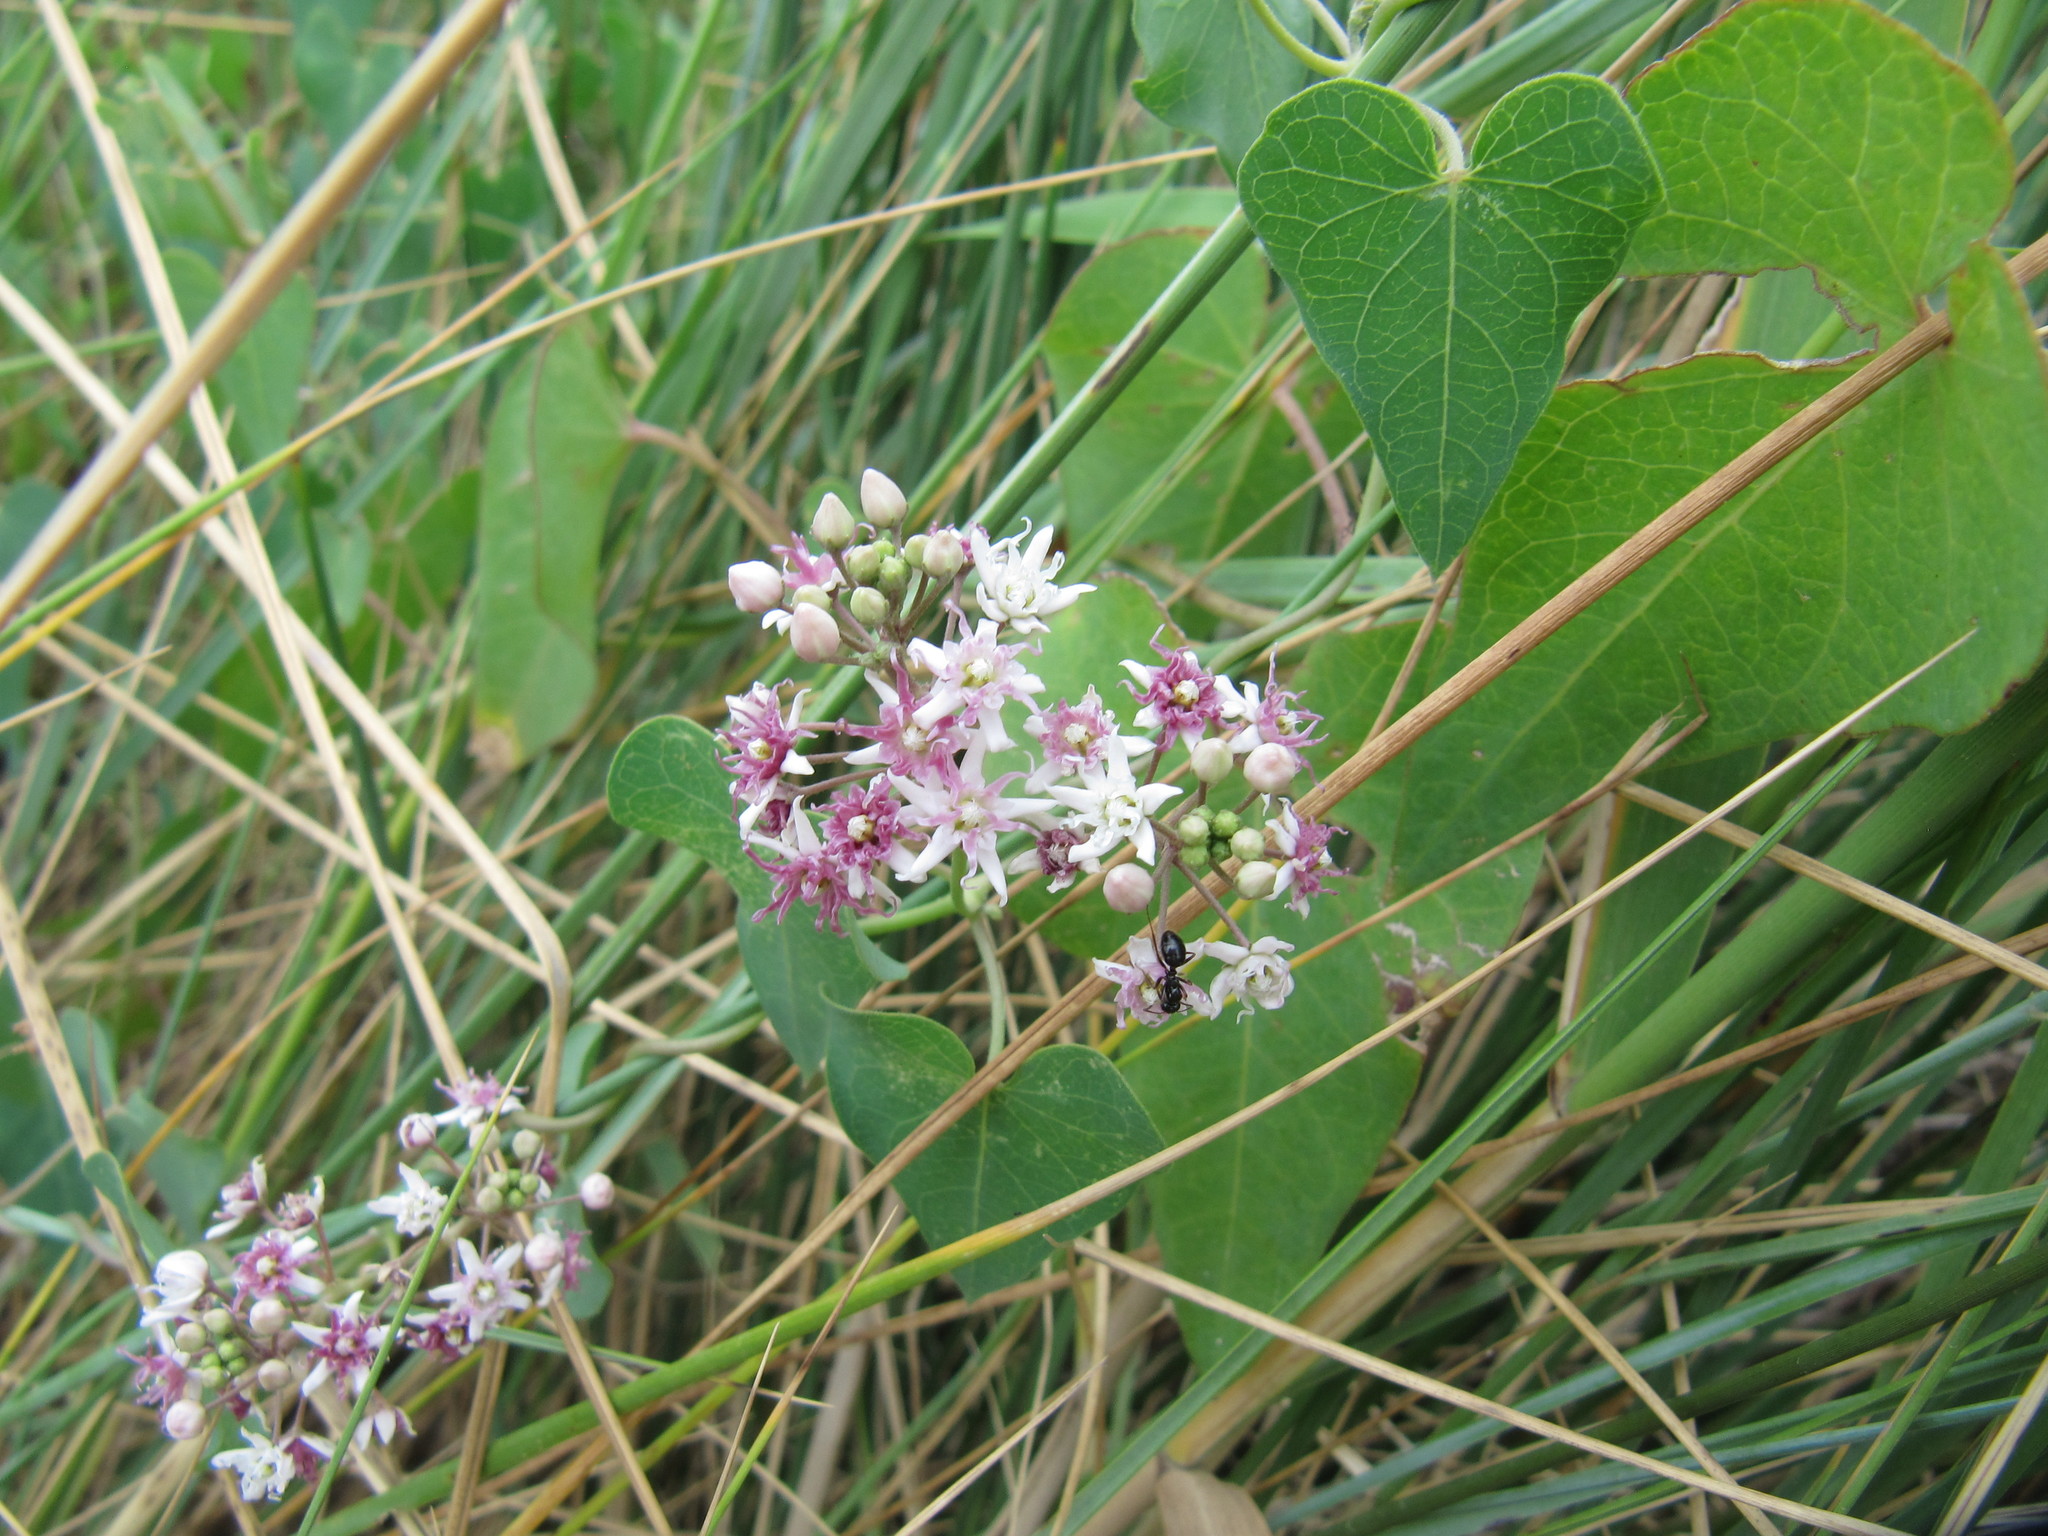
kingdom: Plantae
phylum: Tracheophyta
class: Magnoliopsida
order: Gentianales
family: Apocynaceae
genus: Cynanchum
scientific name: Cynanchum acutum
